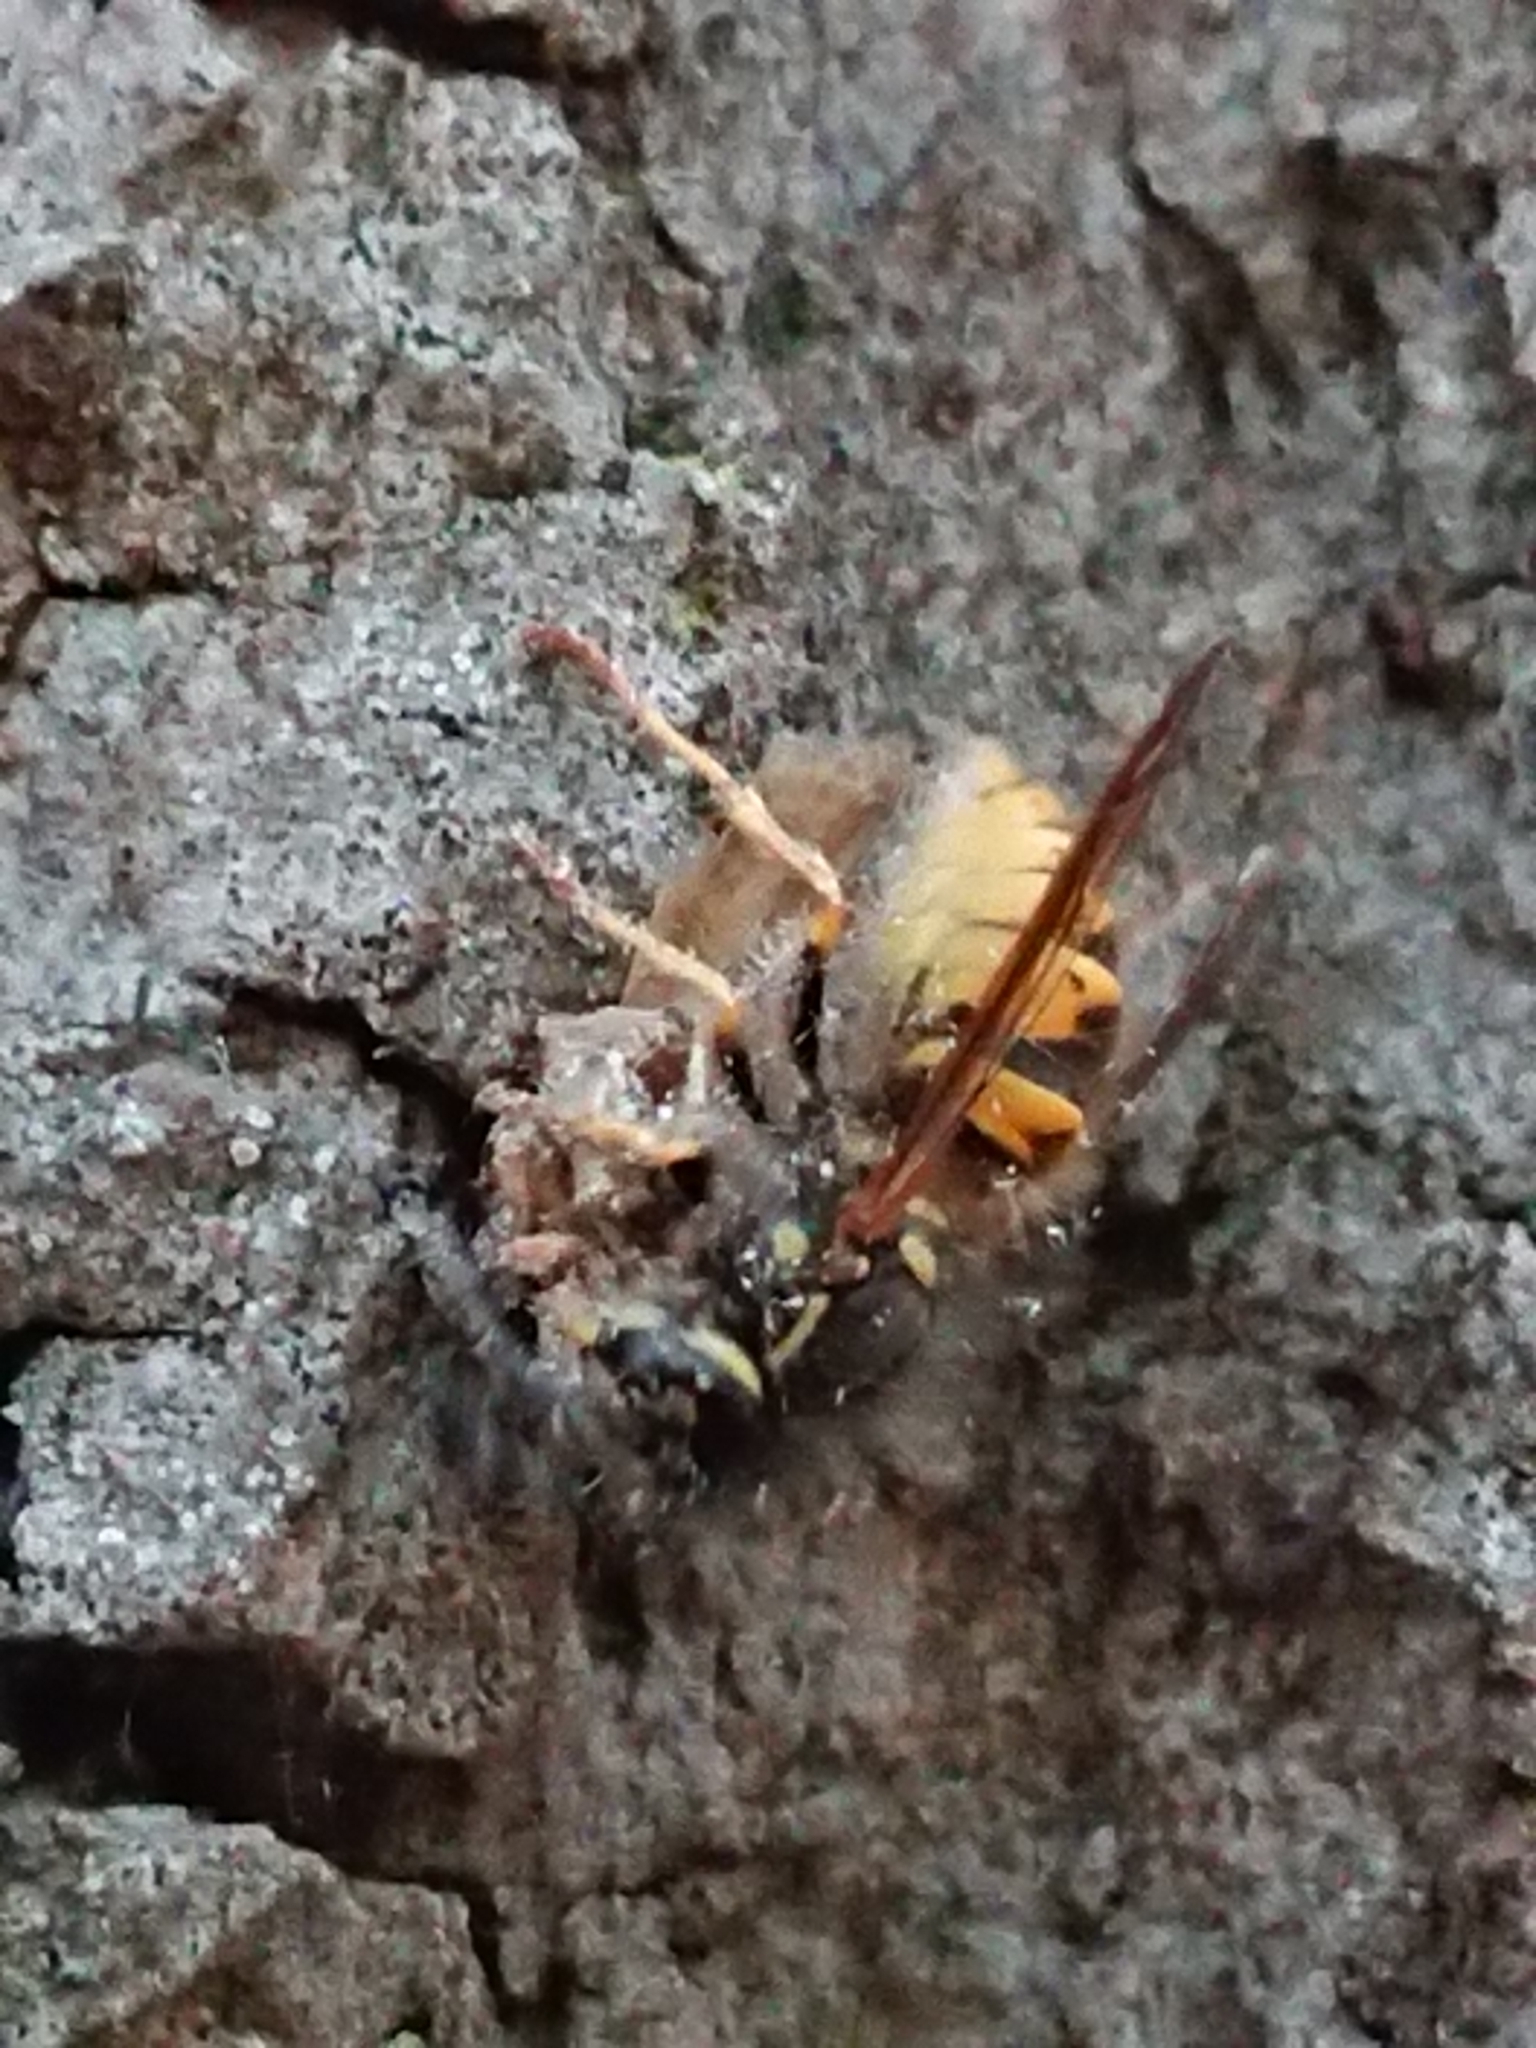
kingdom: Animalia
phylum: Arthropoda
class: Insecta
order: Hymenoptera
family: Vespidae
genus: Vespula
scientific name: Vespula vulgaris
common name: Common wasp
